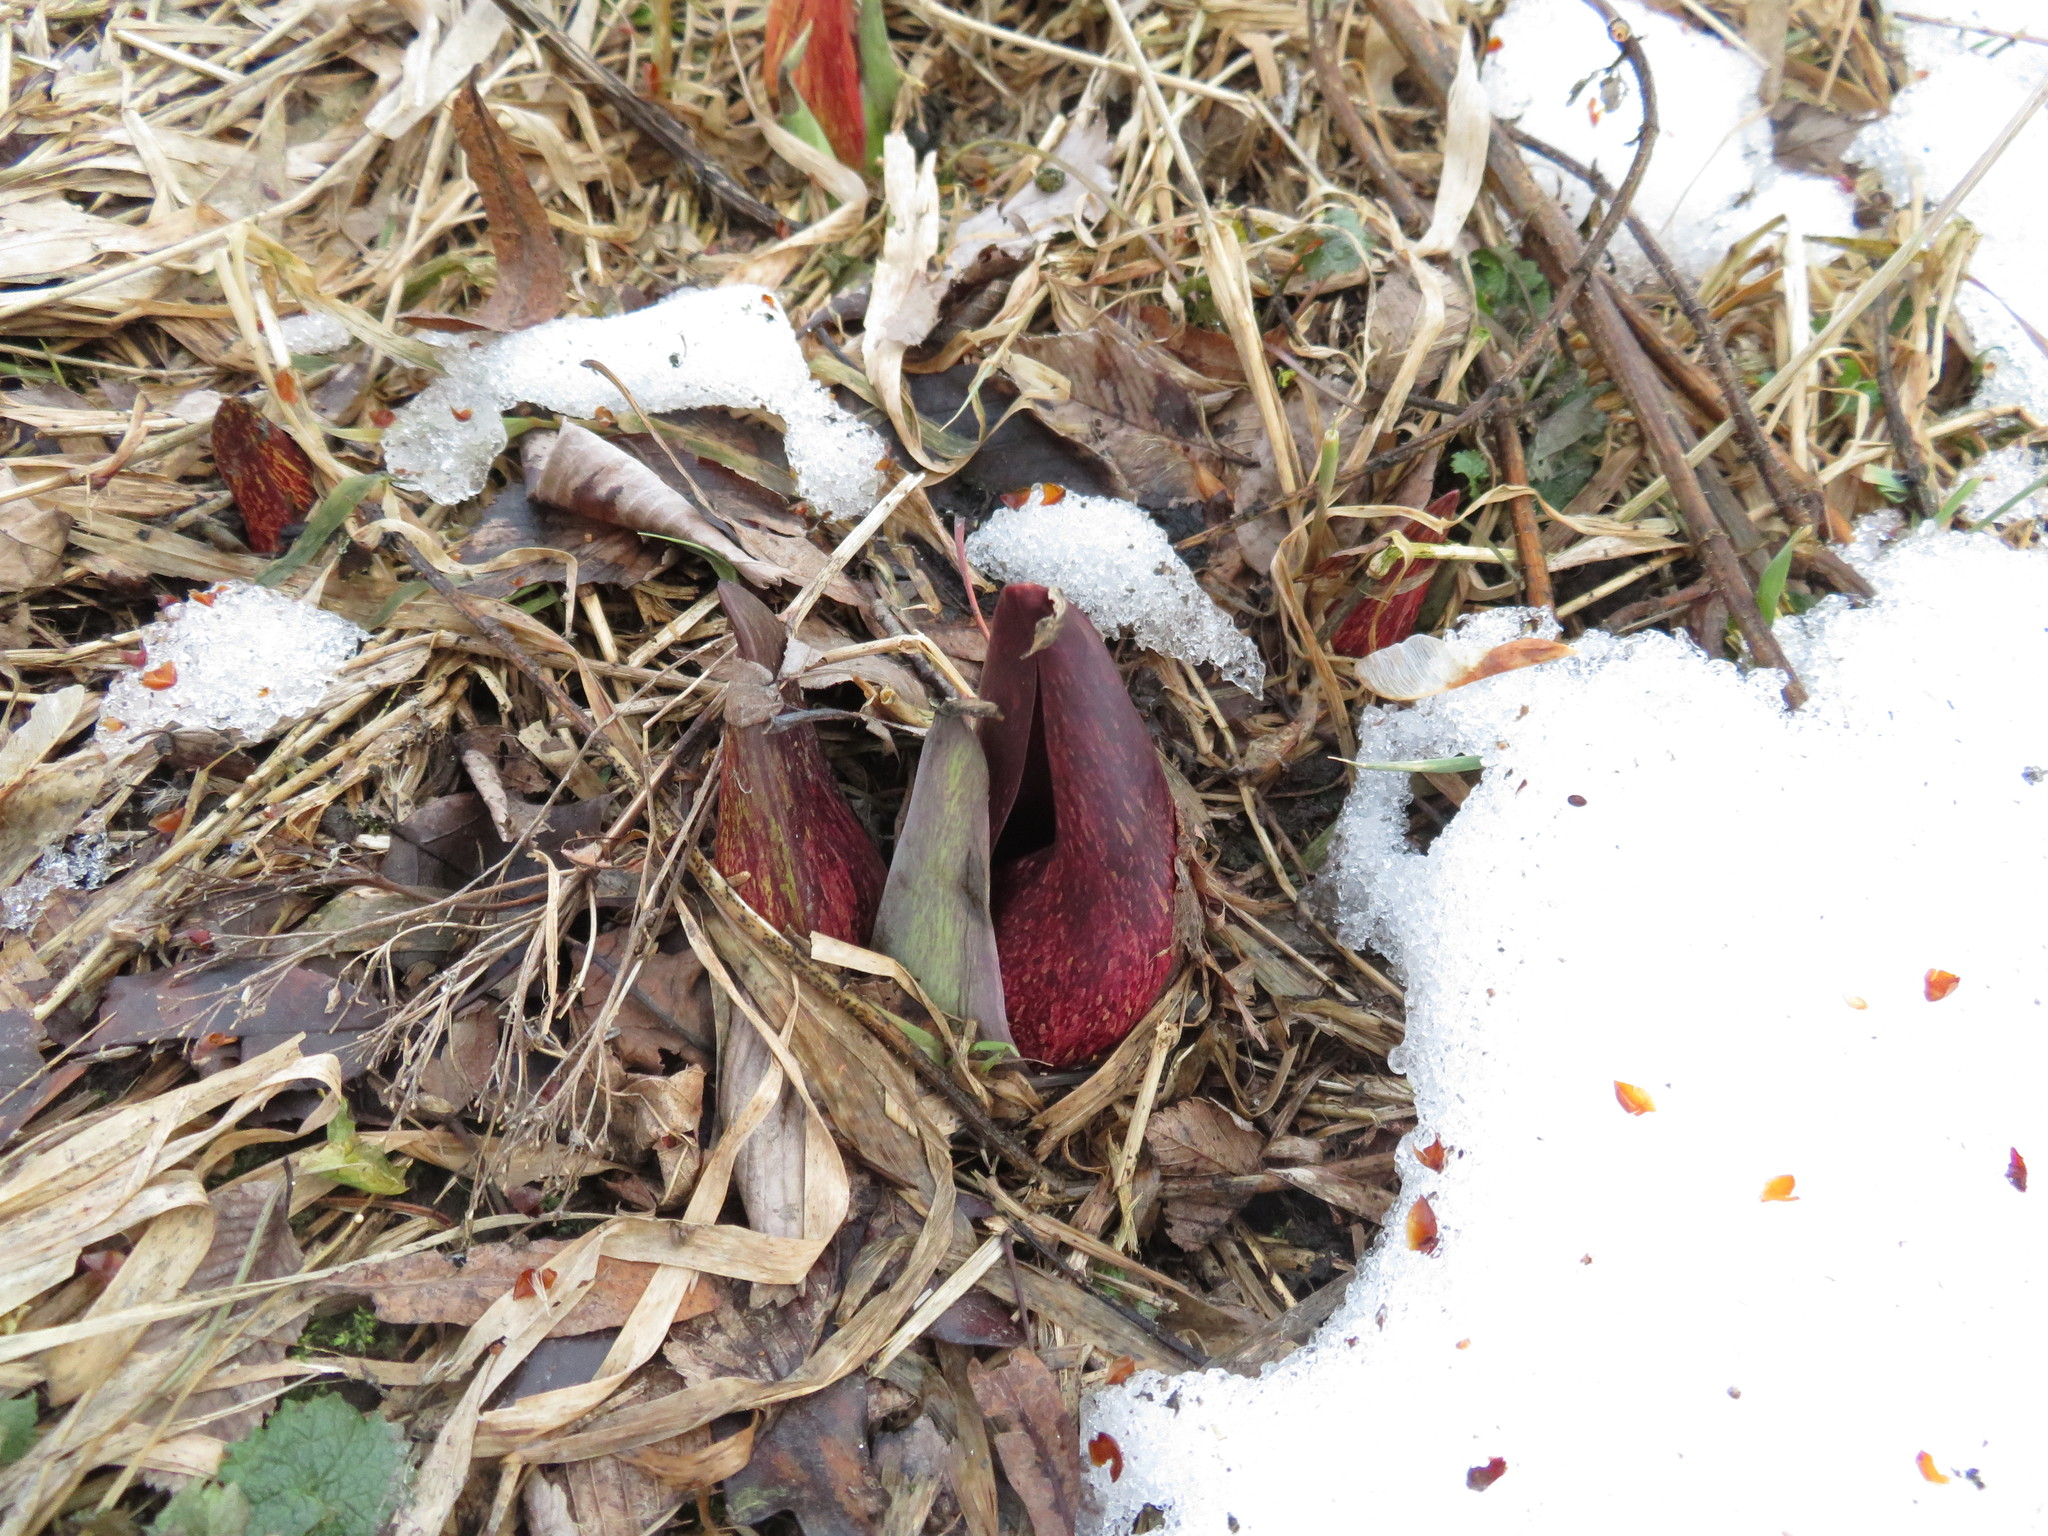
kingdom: Plantae
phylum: Tracheophyta
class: Liliopsida
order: Alismatales
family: Araceae
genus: Symplocarpus
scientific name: Symplocarpus foetidus
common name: Eastern skunk cabbage
